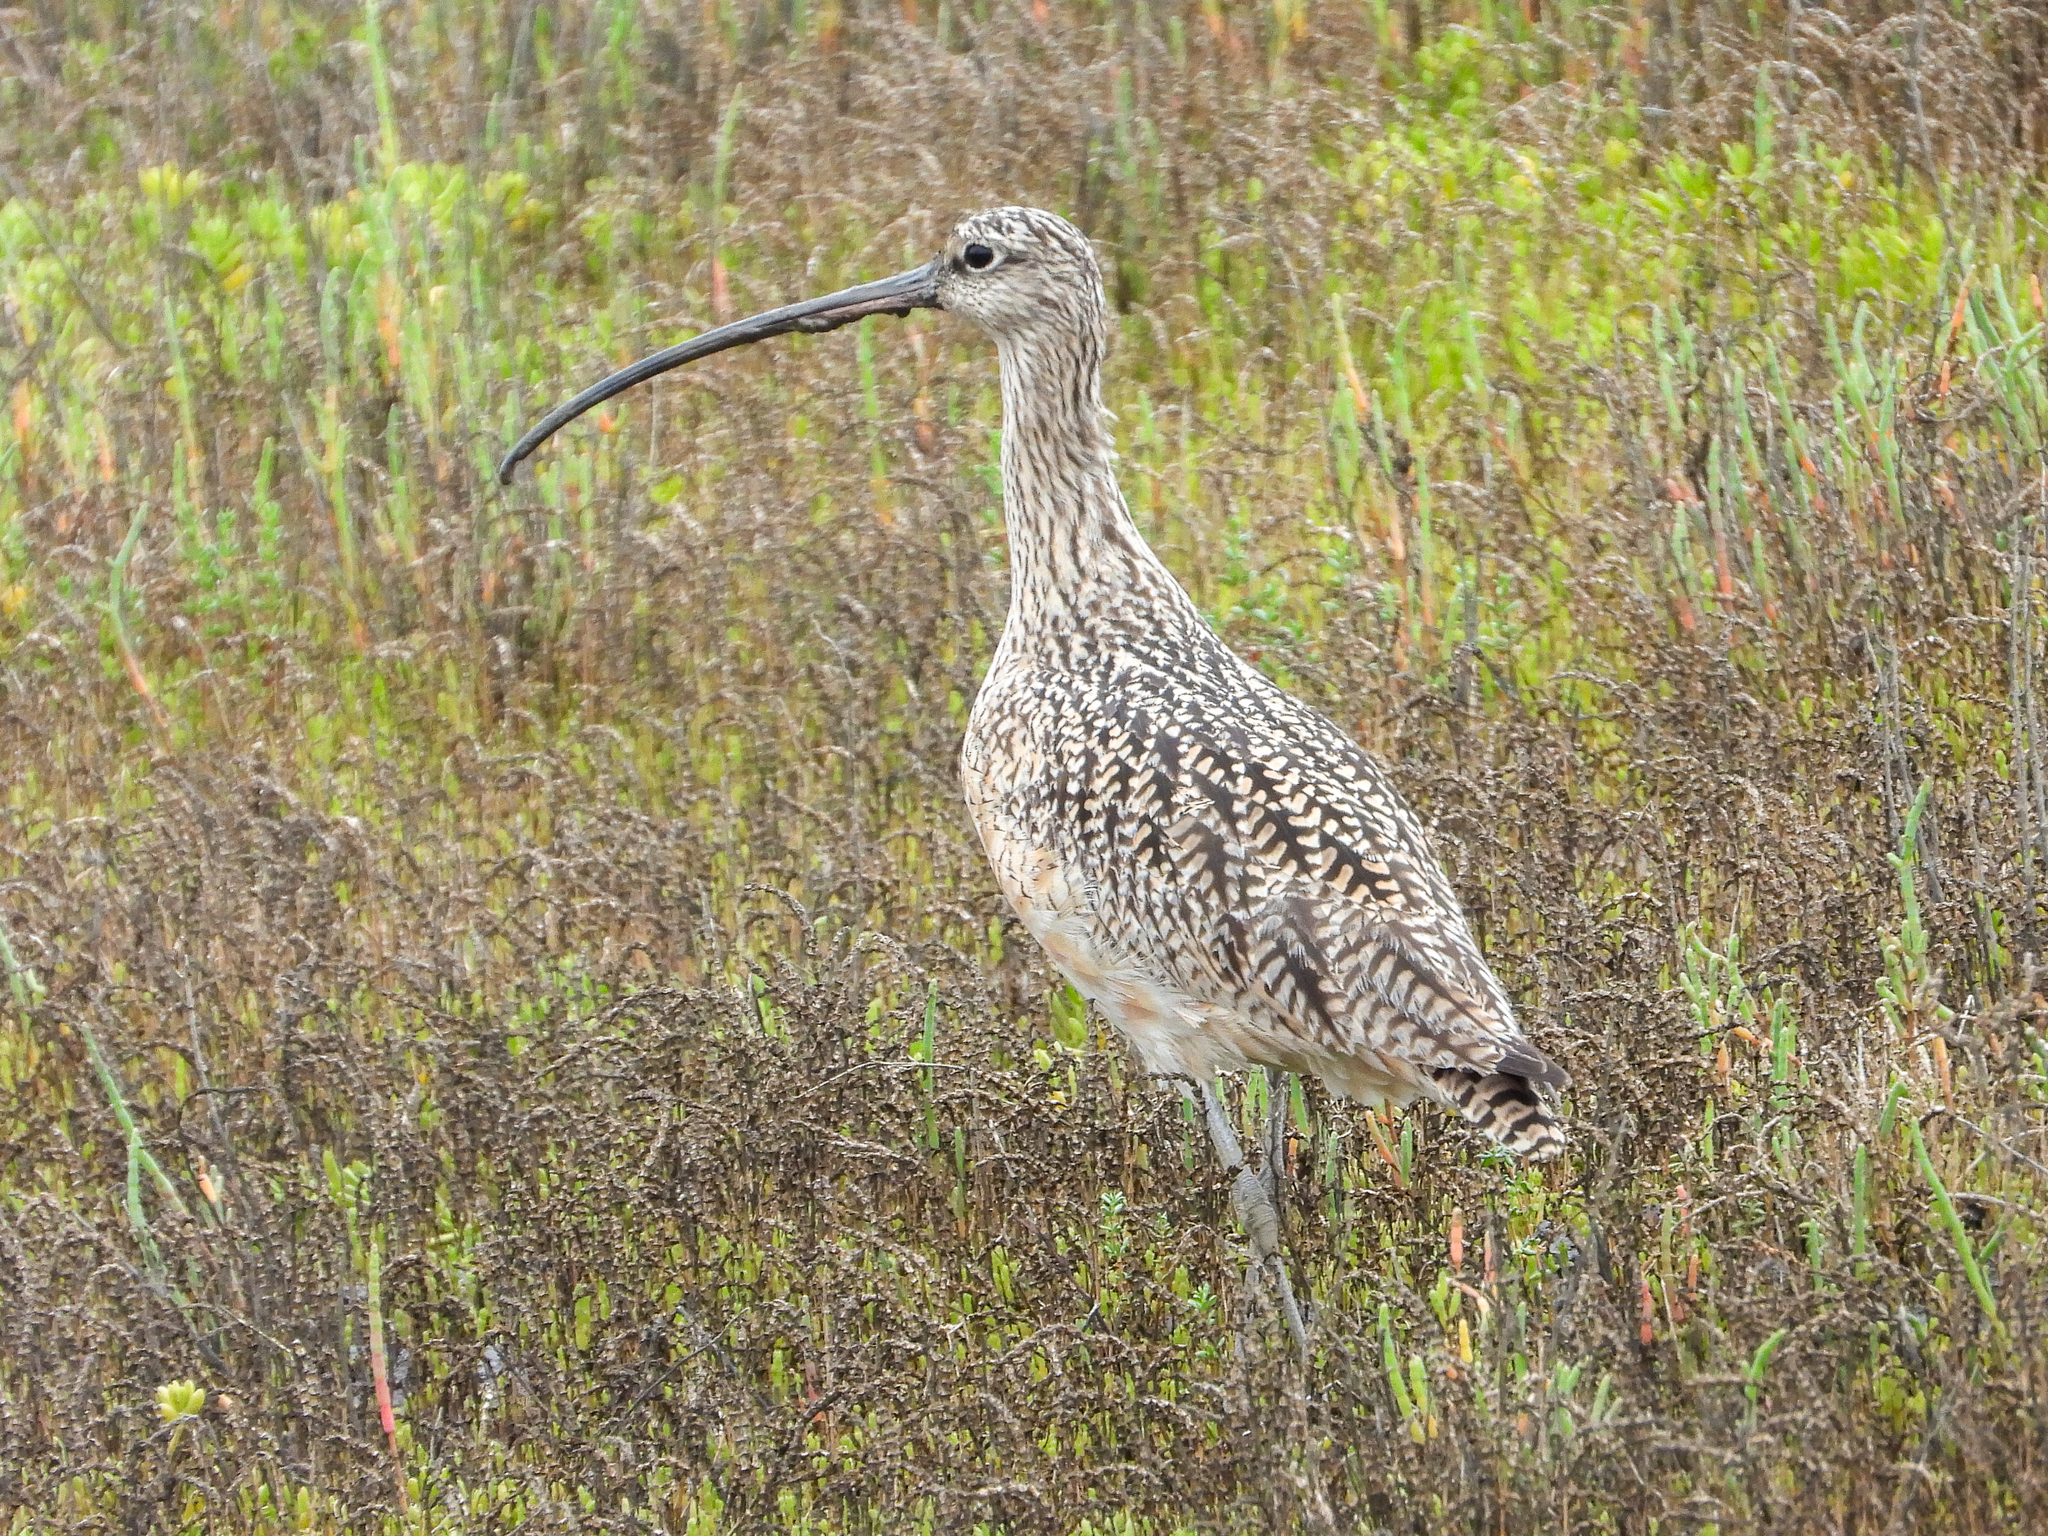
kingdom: Animalia
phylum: Chordata
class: Aves
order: Charadriiformes
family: Scolopacidae
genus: Numenius
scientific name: Numenius americanus
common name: Long-billed curlew
